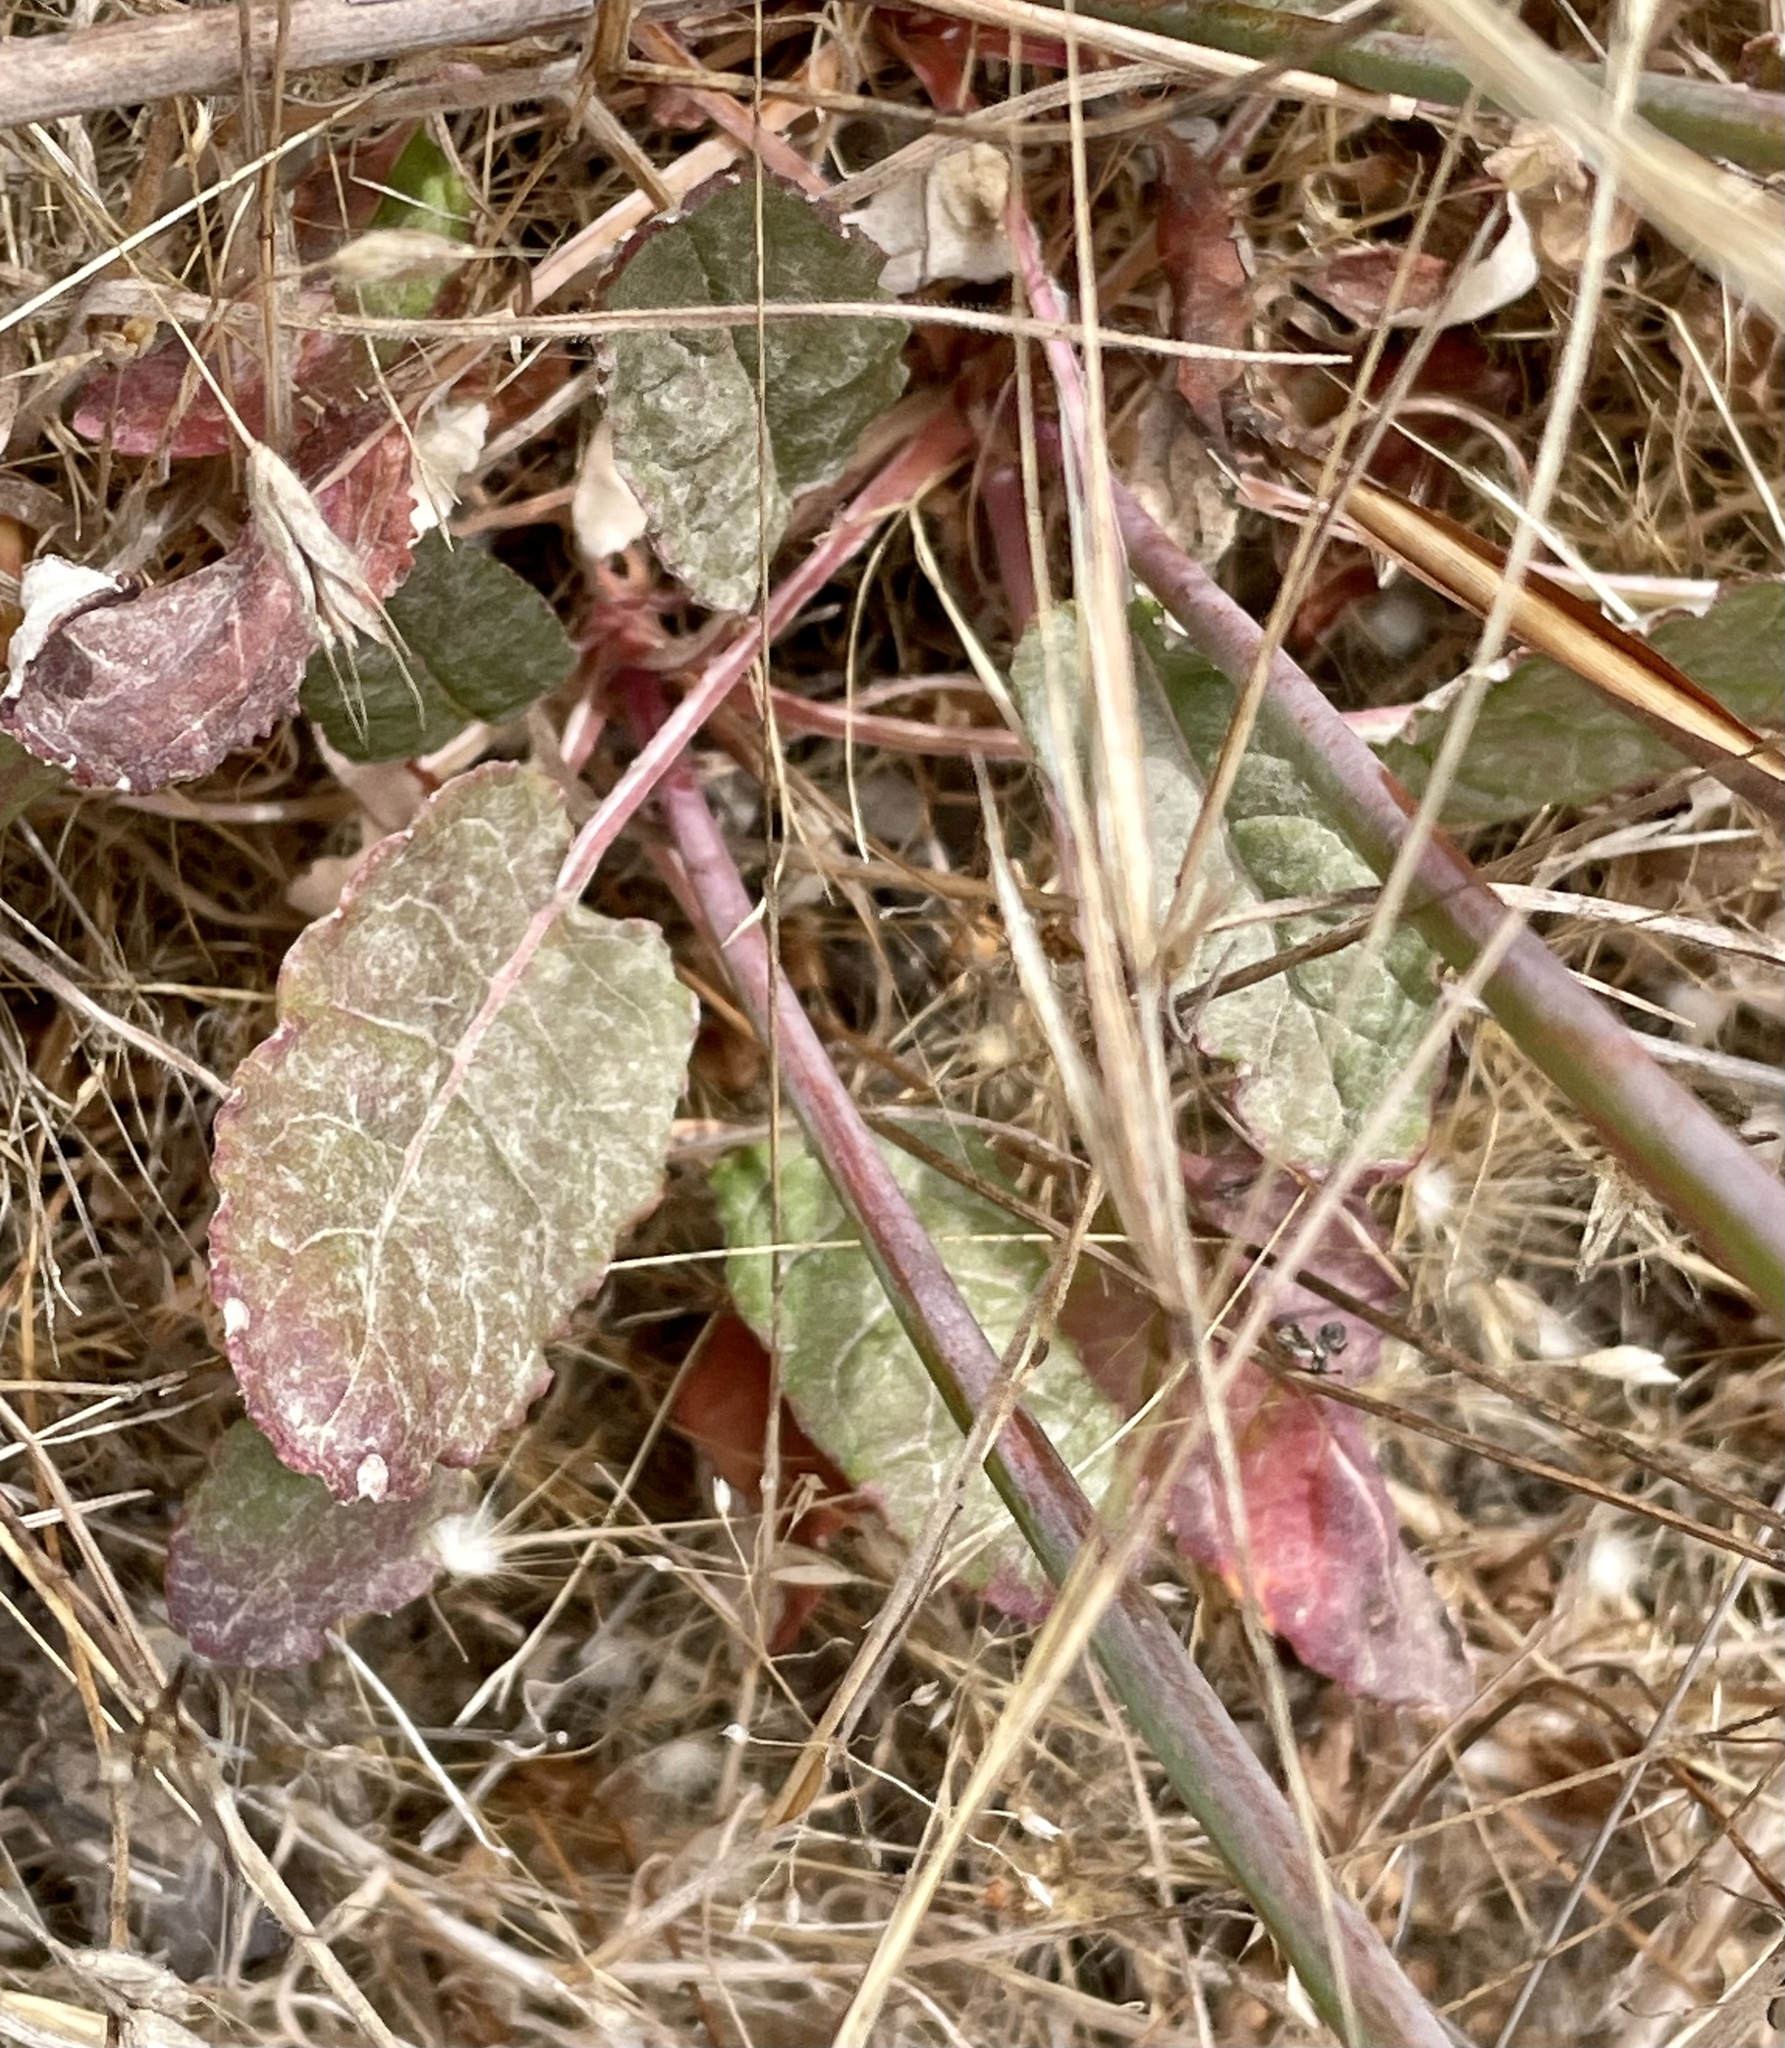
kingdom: Plantae
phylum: Tracheophyta
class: Magnoliopsida
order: Caryophyllales
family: Polygonaceae
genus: Eriogonum
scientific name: Eriogonum nudum
